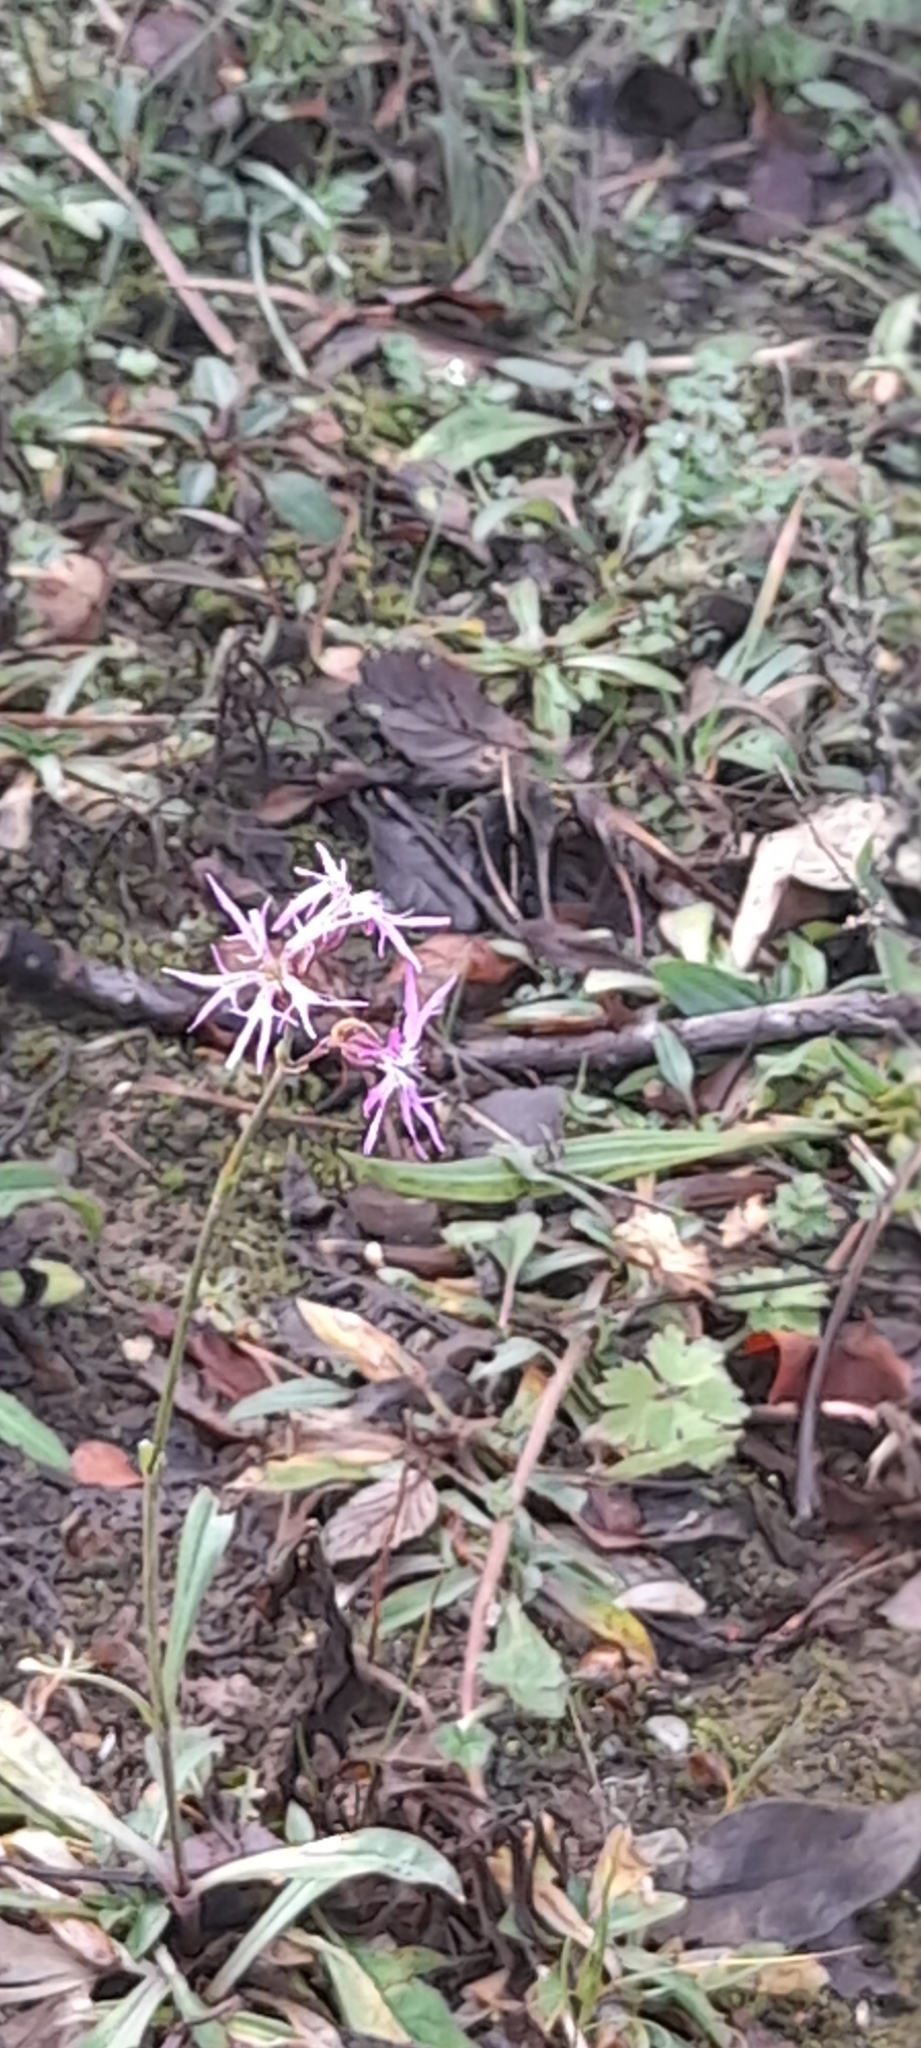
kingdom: Plantae
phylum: Tracheophyta
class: Magnoliopsida
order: Caryophyllales
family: Caryophyllaceae
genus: Silene
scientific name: Silene flos-cuculi
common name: Ragged-robin
